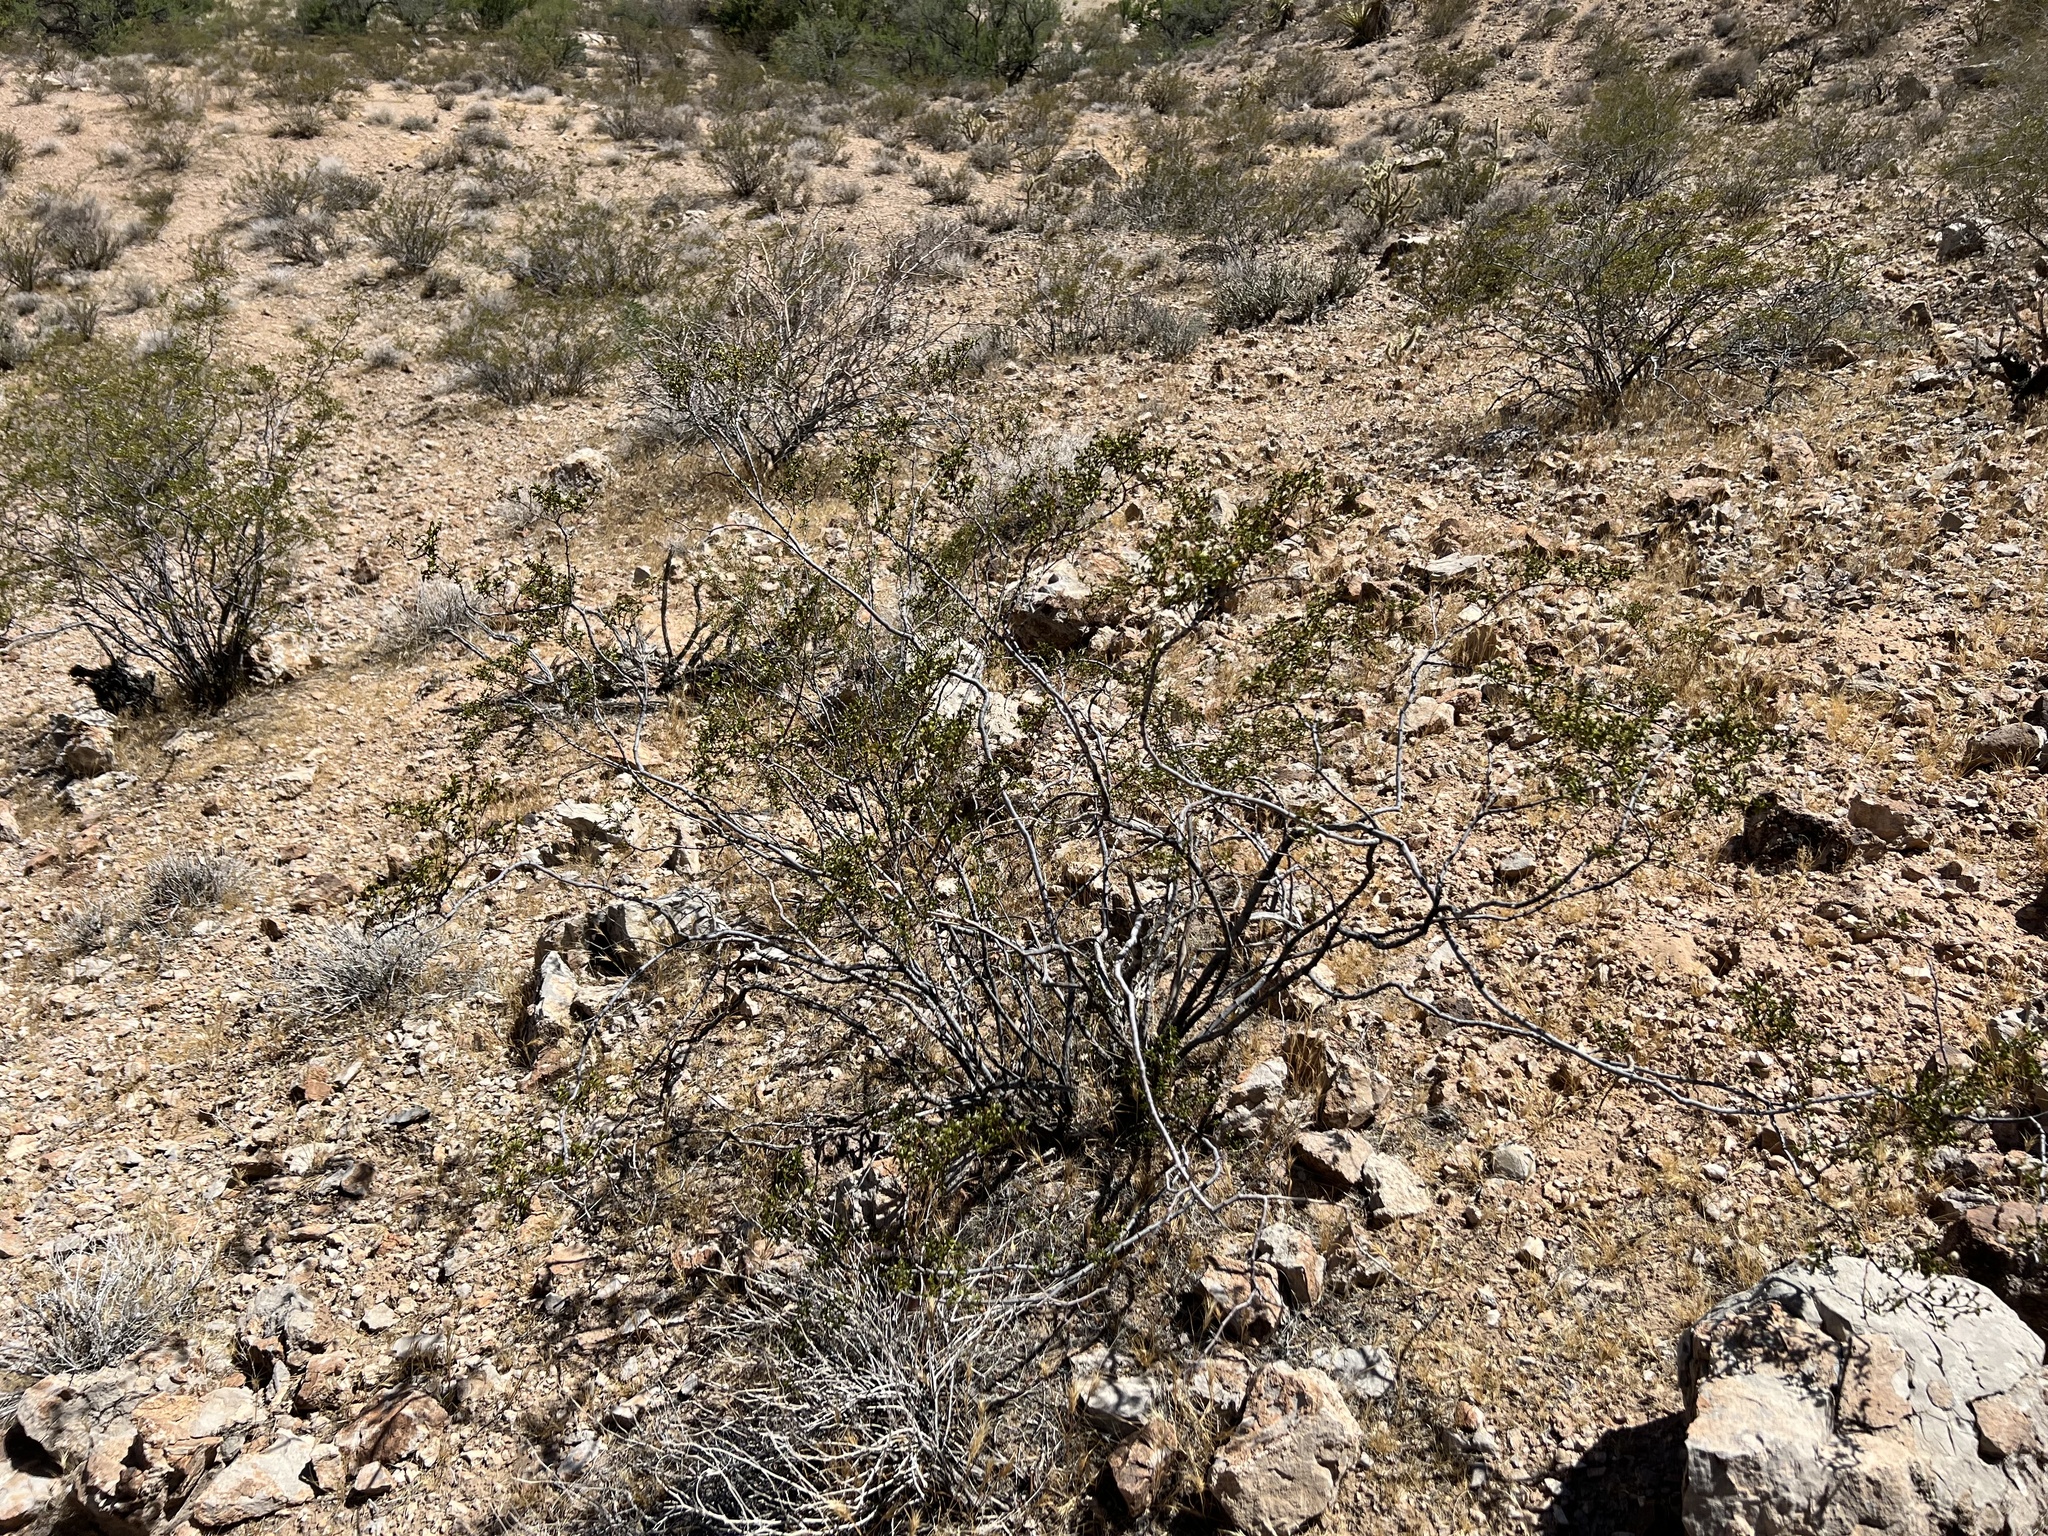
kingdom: Plantae
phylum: Tracheophyta
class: Magnoliopsida
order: Zygophyllales
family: Zygophyllaceae
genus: Larrea
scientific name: Larrea tridentata
